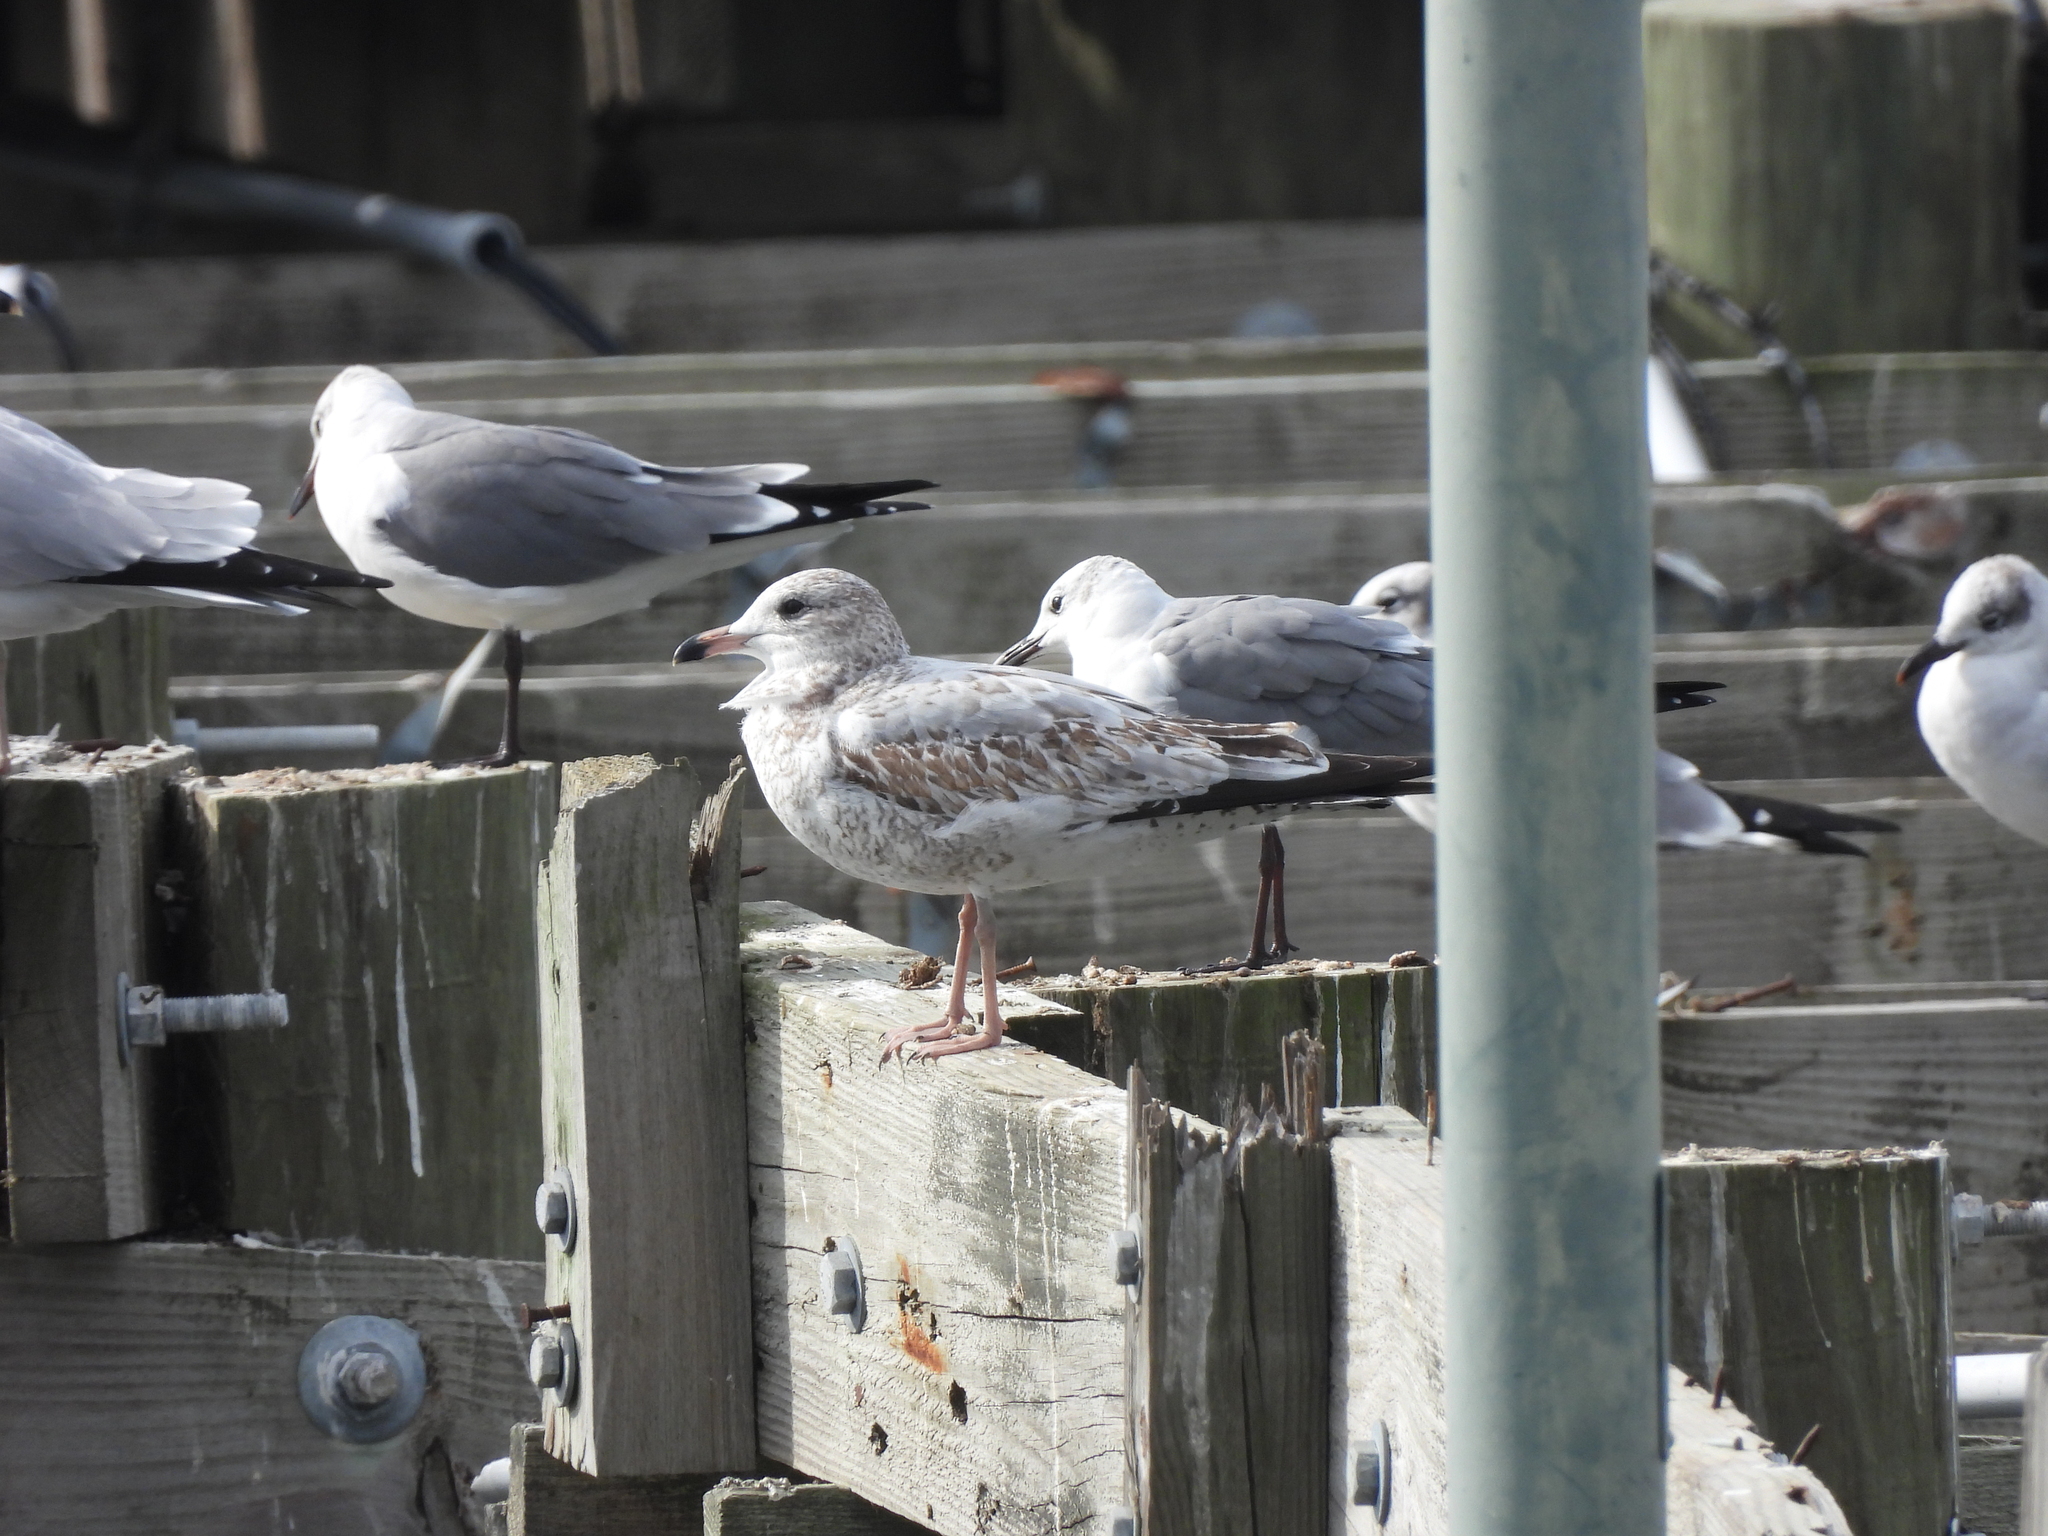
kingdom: Animalia
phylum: Chordata
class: Aves
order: Charadriiformes
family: Laridae
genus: Larus
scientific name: Larus delawarensis
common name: Ring-billed gull
